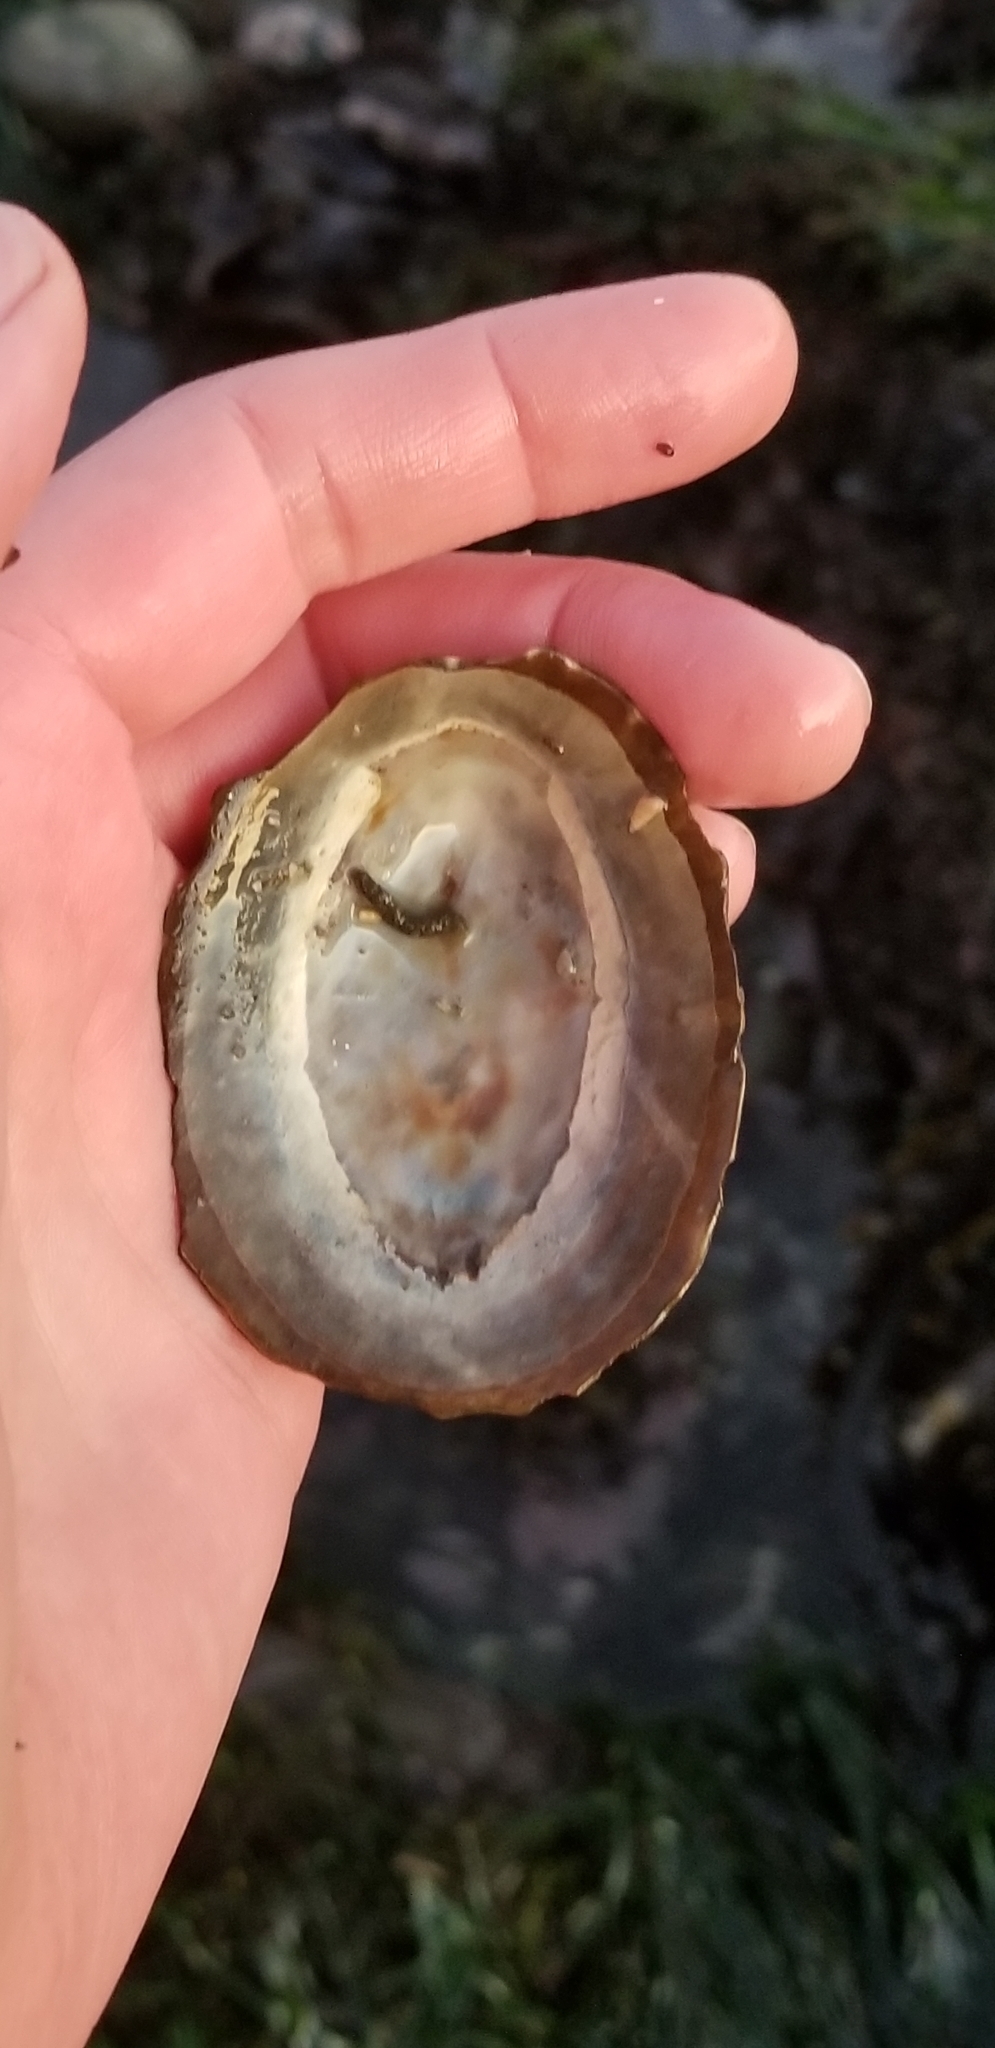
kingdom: Animalia
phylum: Mollusca
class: Gastropoda
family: Lottiidae
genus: Lottia
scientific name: Lottia gigantea
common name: Owl limpet
